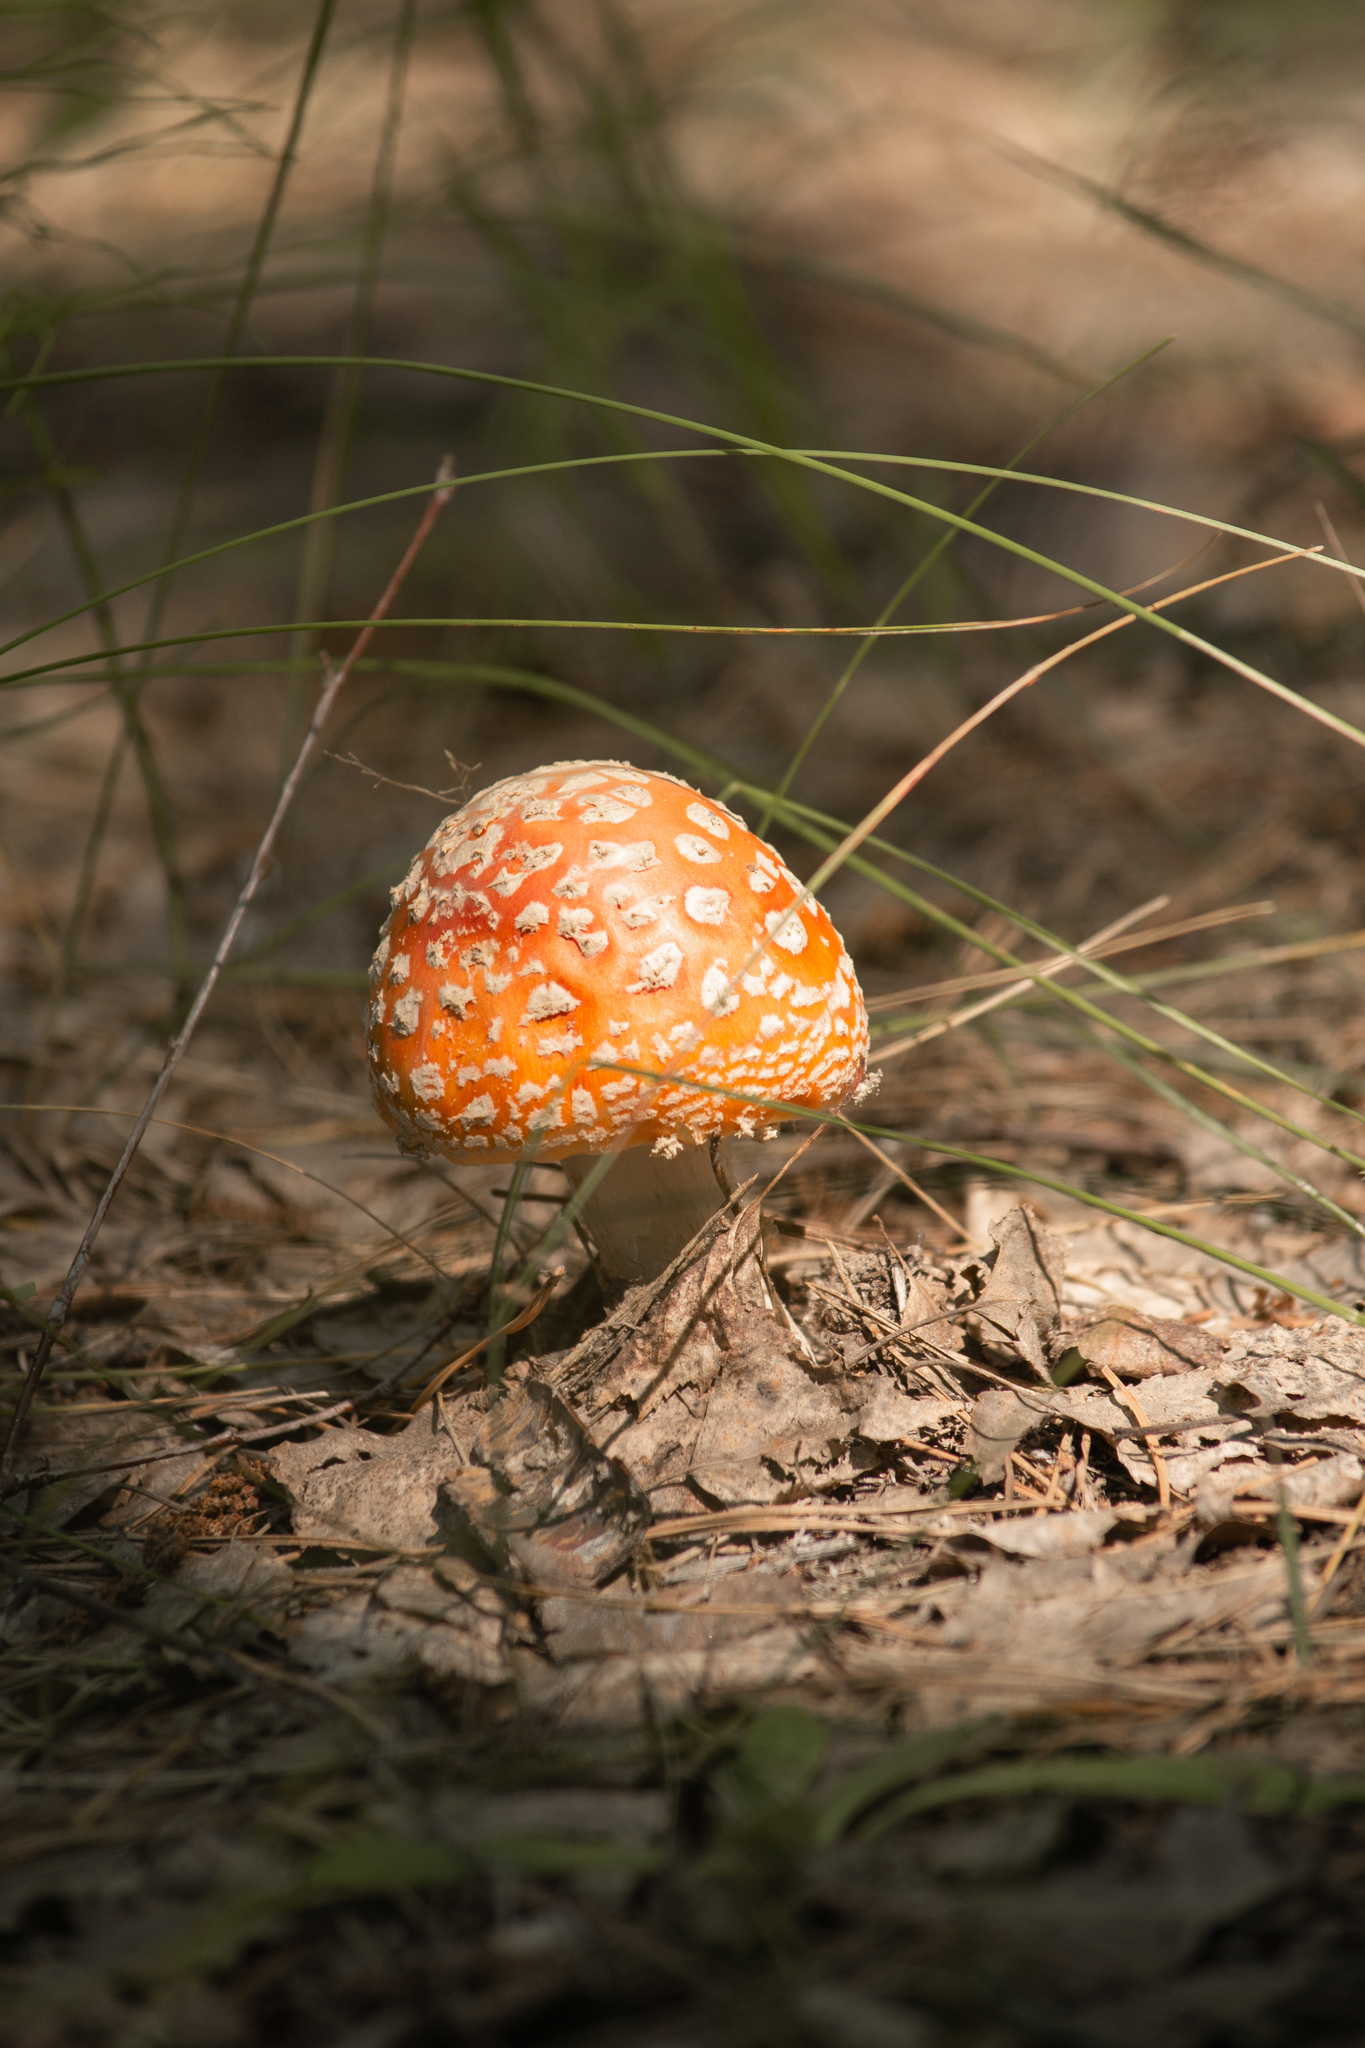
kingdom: Fungi
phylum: Basidiomycota
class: Agaricomycetes
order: Agaricales
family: Amanitaceae
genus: Amanita
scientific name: Amanita muscaria
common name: Fly agaric
